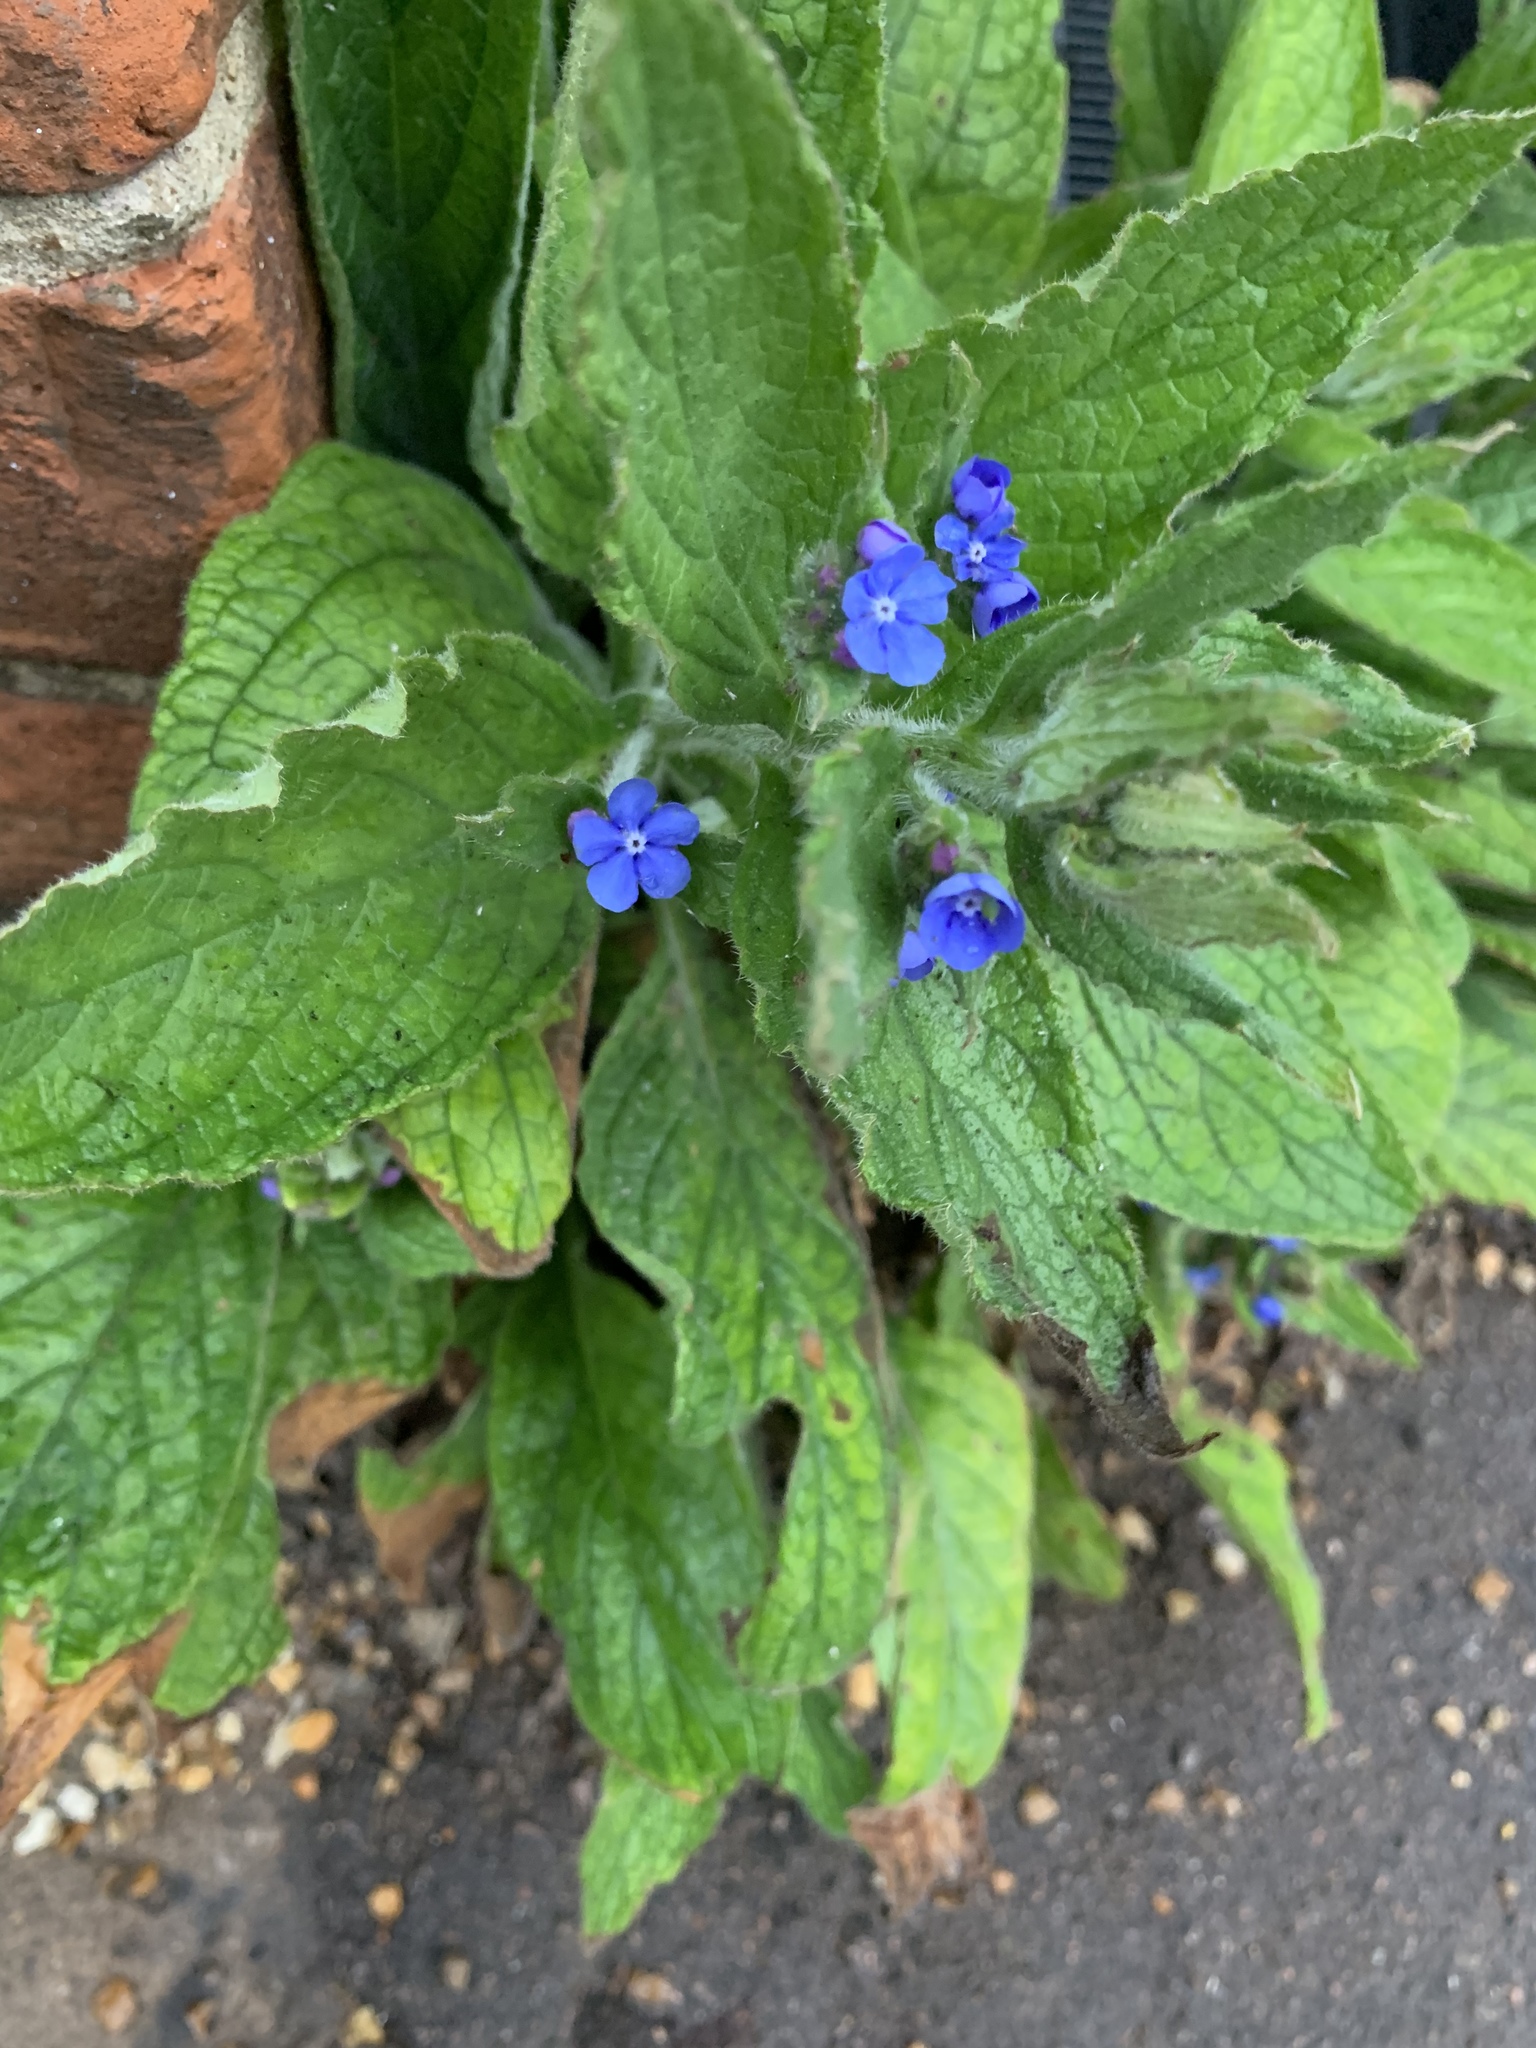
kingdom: Plantae
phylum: Tracheophyta
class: Magnoliopsida
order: Boraginales
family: Boraginaceae
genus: Pentaglottis
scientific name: Pentaglottis sempervirens
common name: Green alkanet
